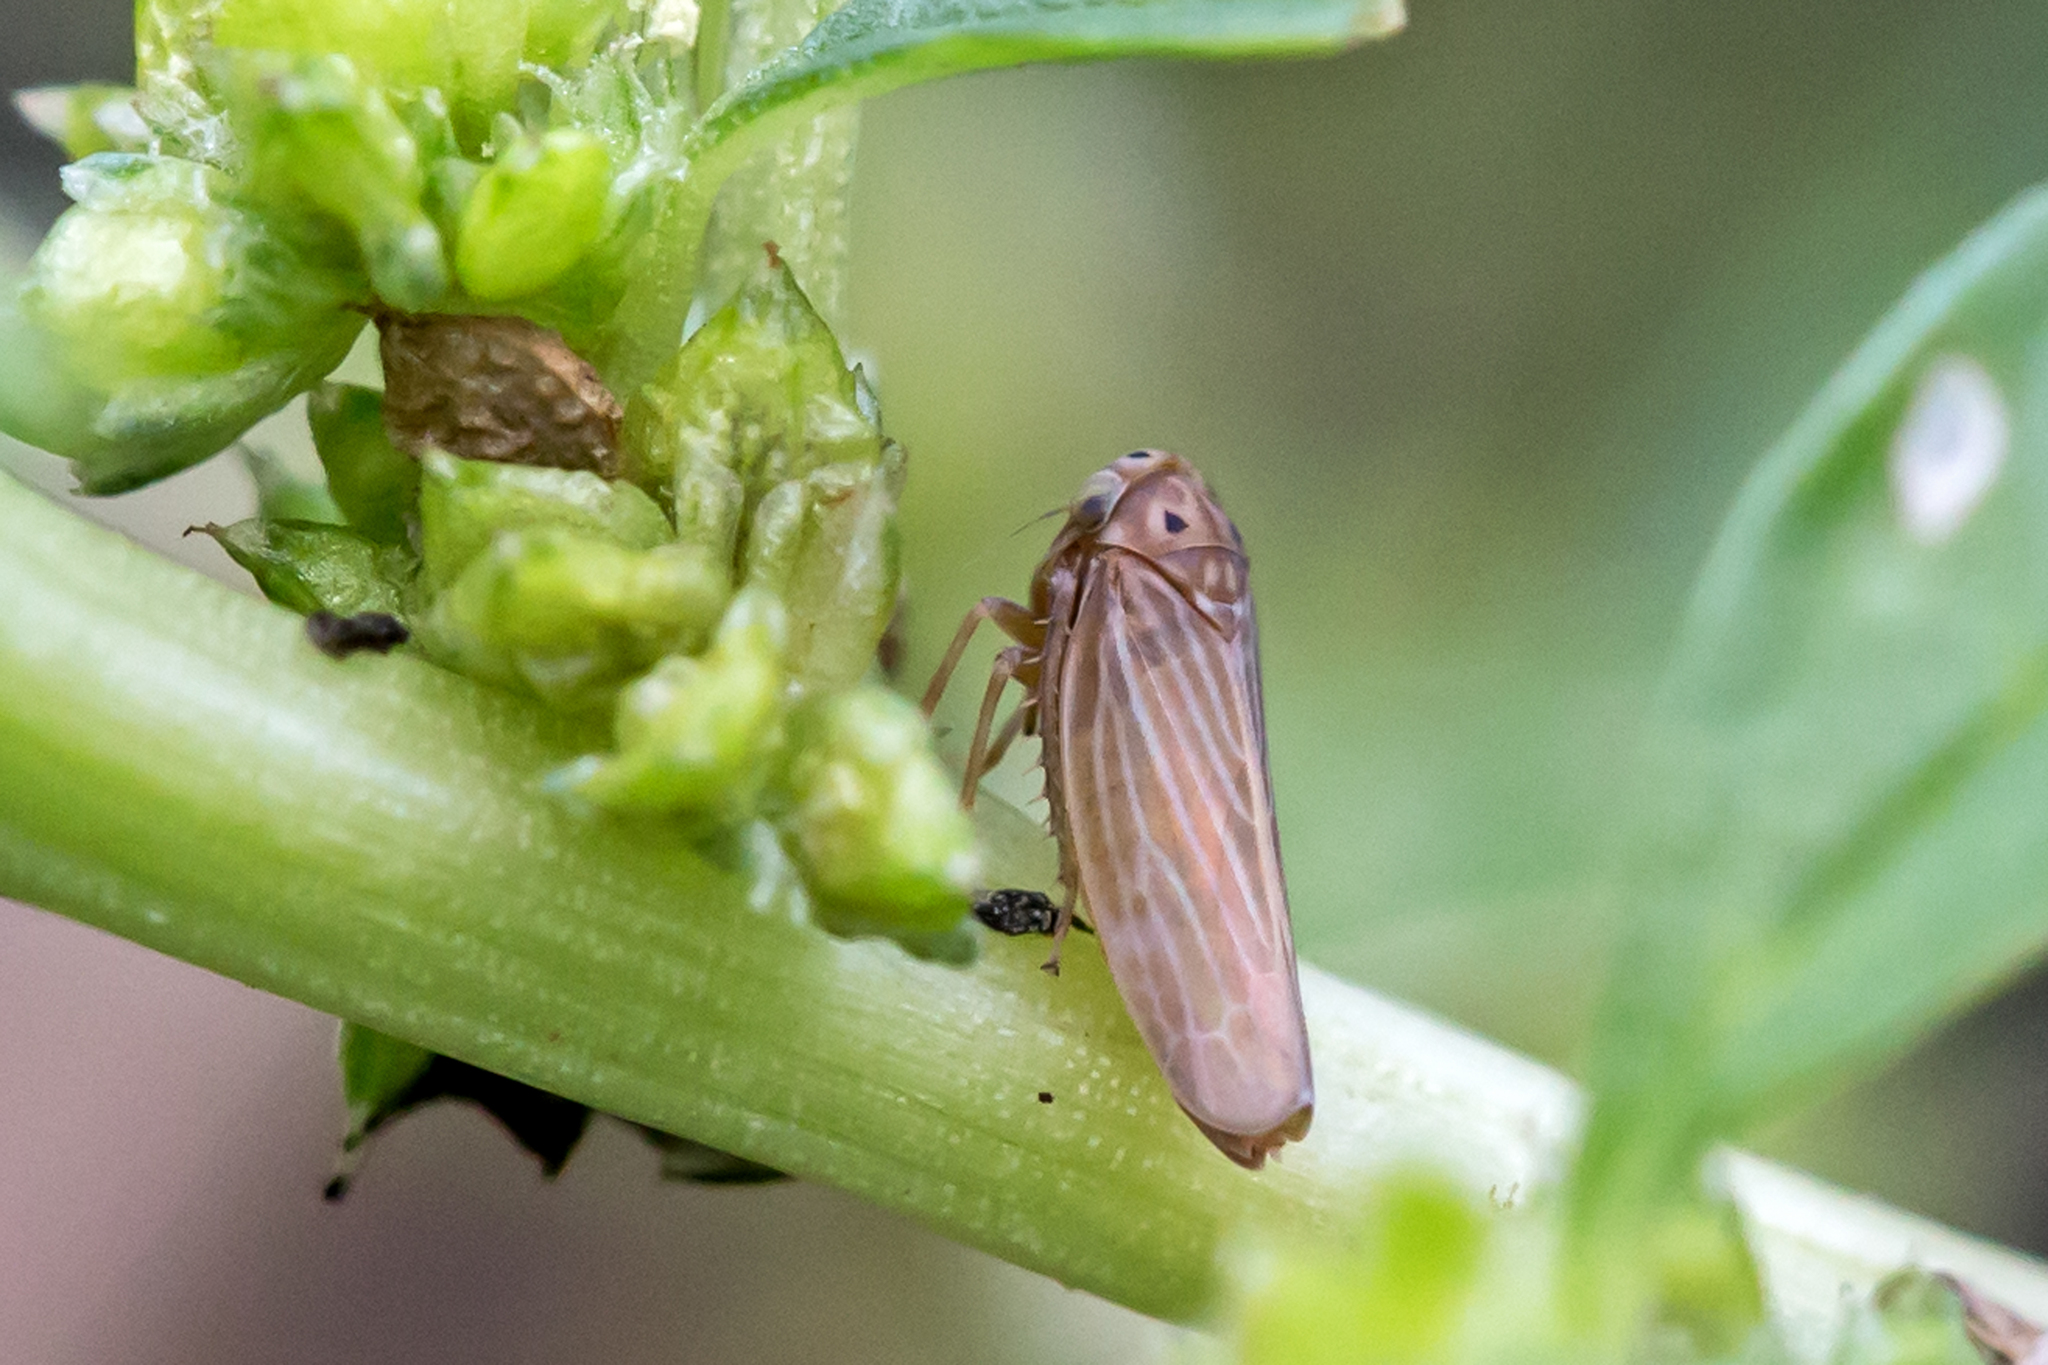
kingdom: Animalia
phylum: Arthropoda
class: Insecta
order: Hemiptera
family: Cicadellidae
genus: Agallia
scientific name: Agallia constricta
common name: The constricted leafhopper
